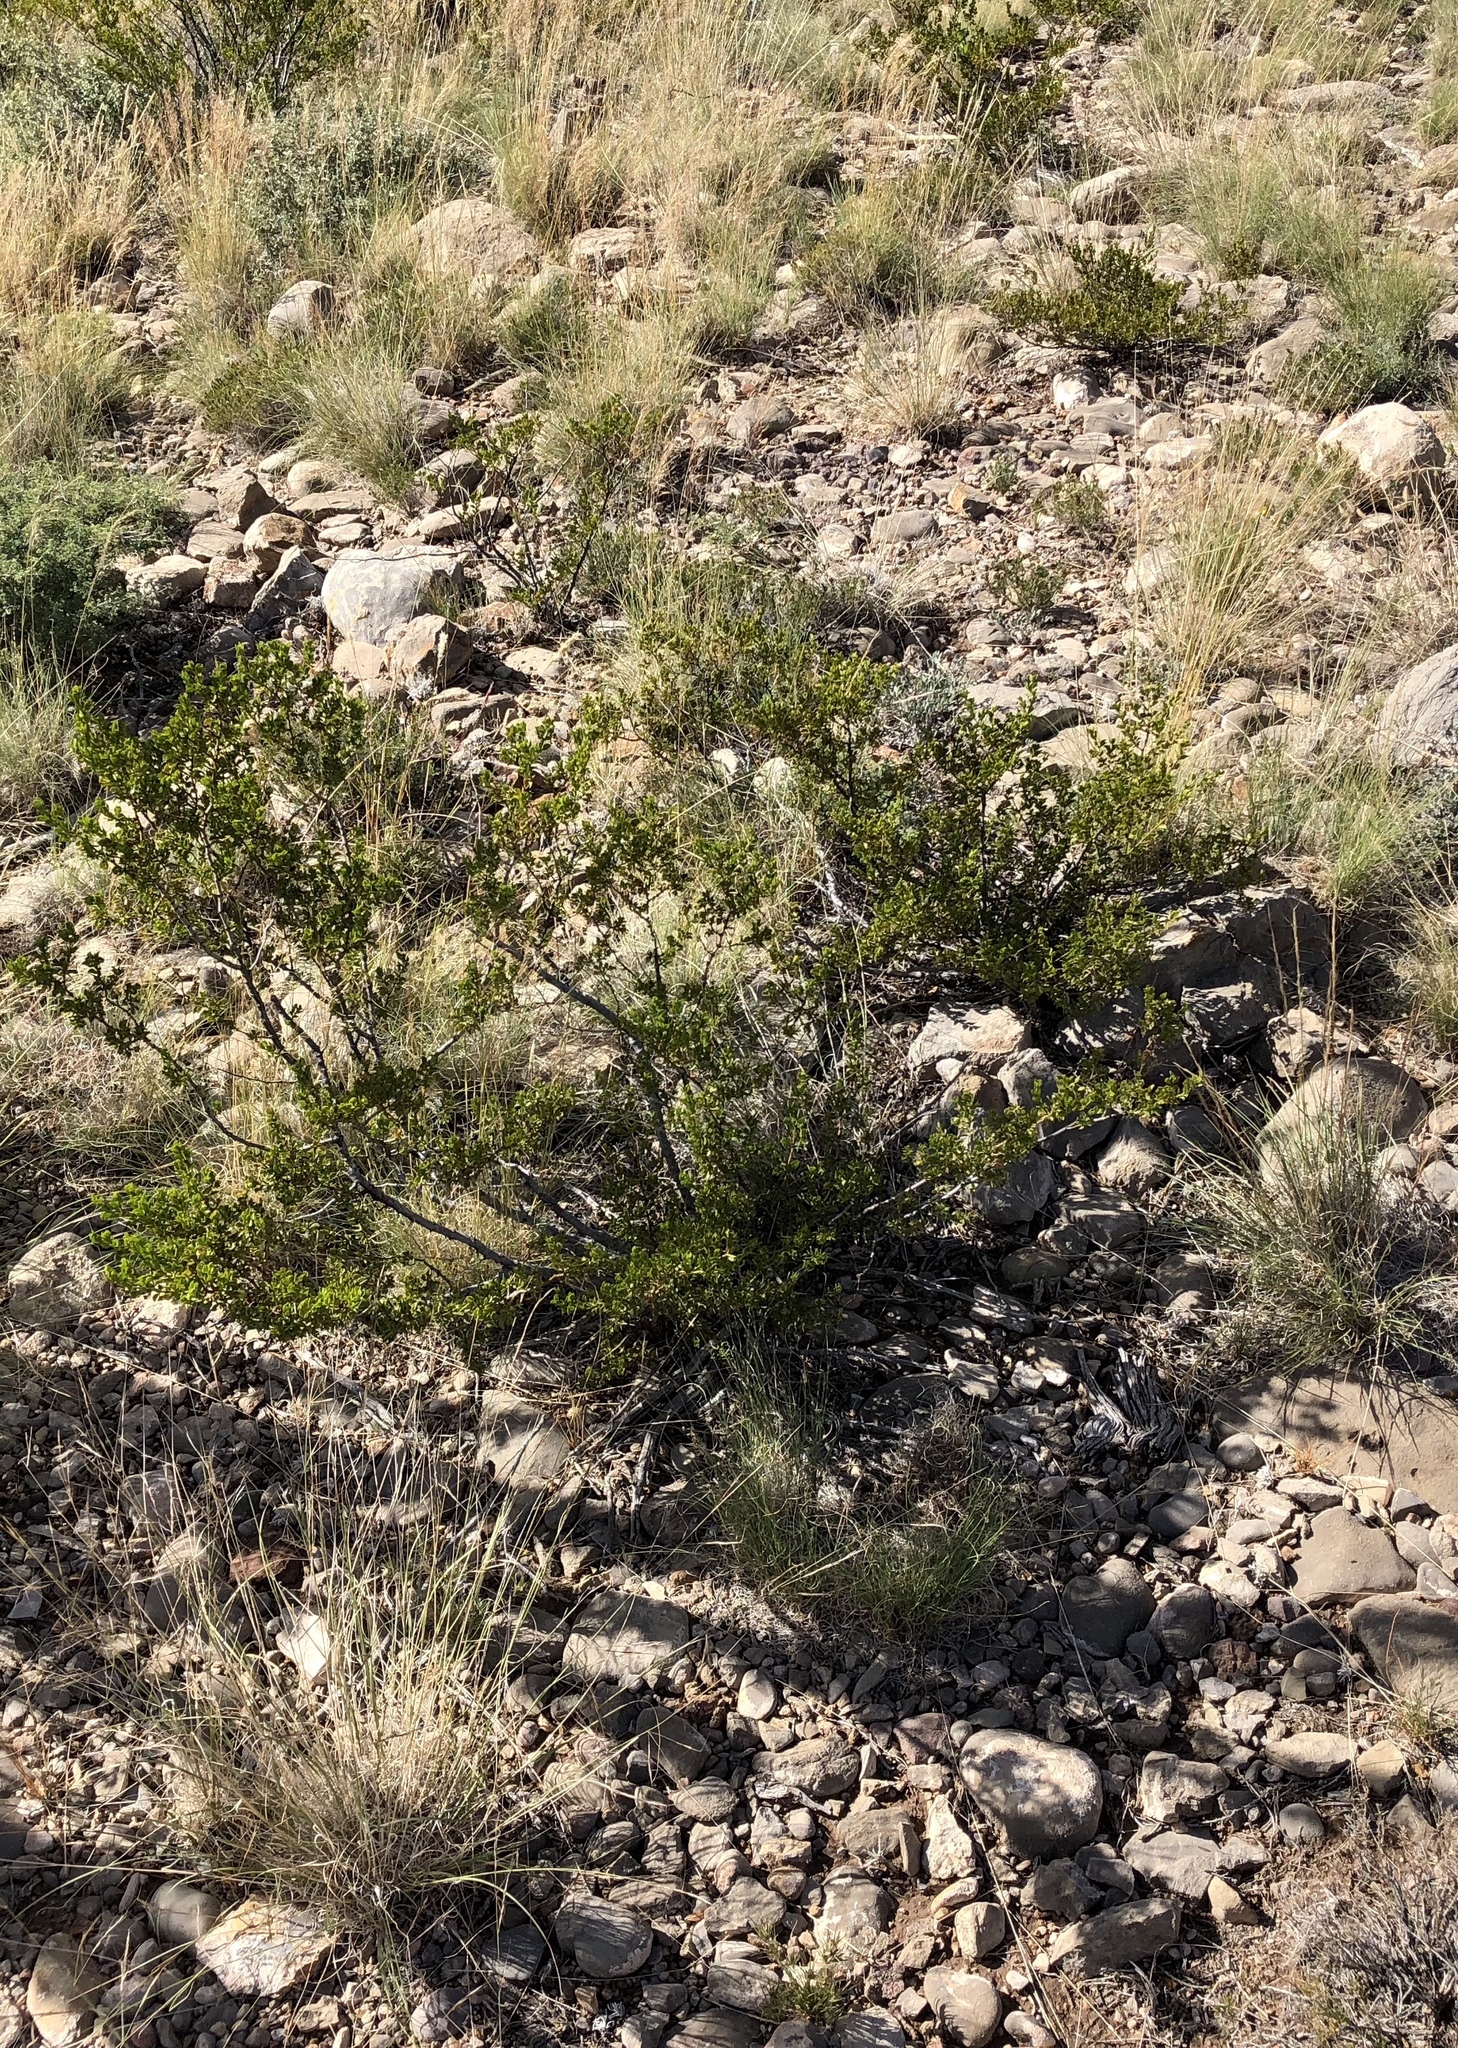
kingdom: Plantae
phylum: Tracheophyta
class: Magnoliopsida
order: Zygophyllales
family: Zygophyllaceae
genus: Larrea
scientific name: Larrea tridentata
